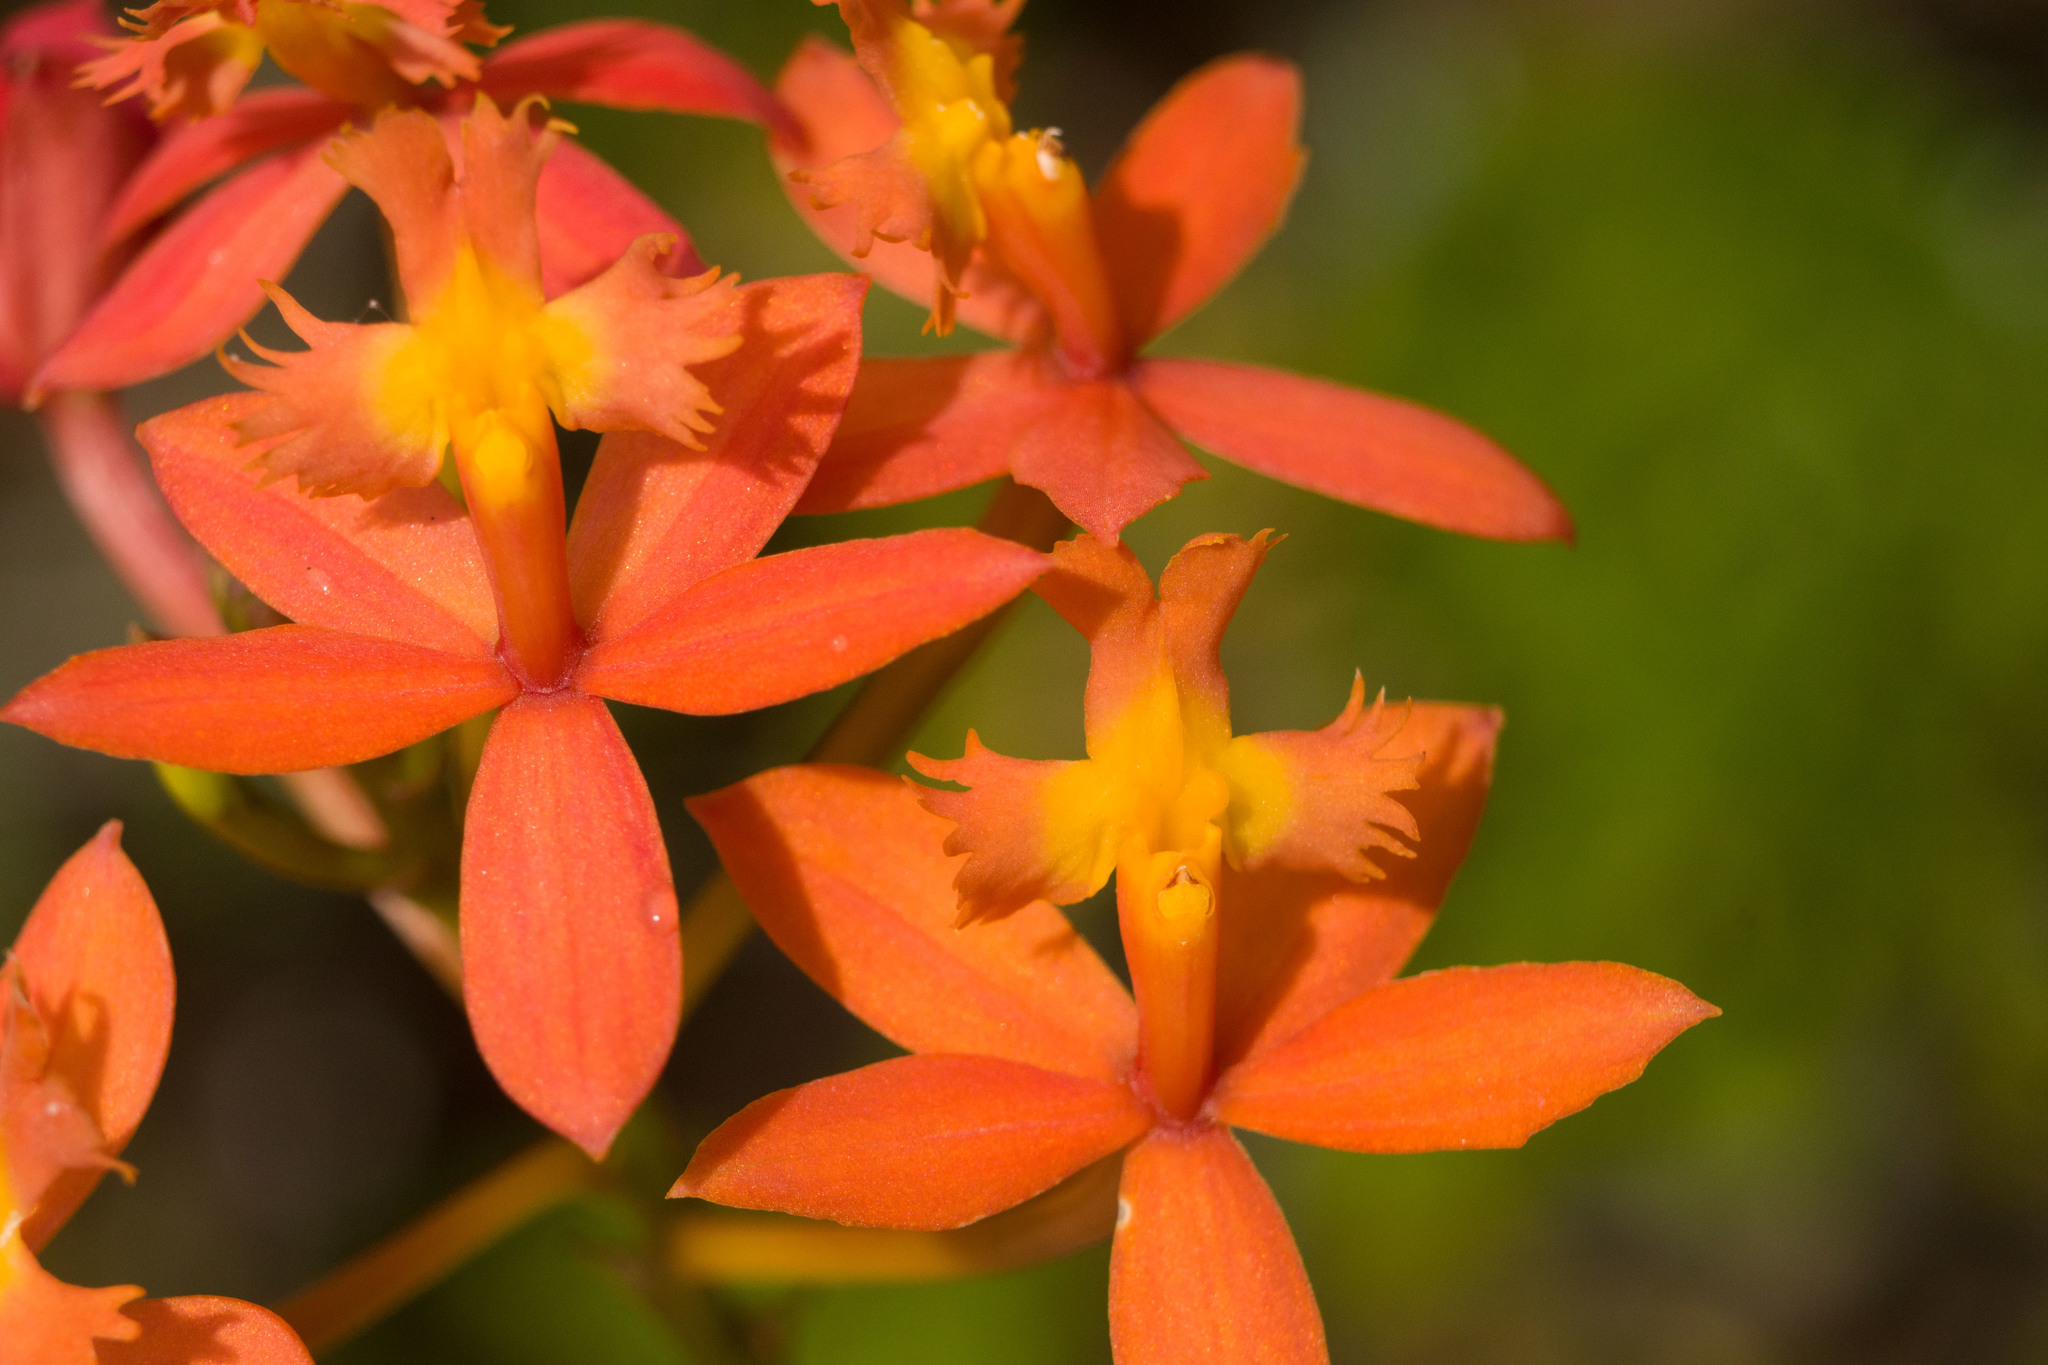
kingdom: Plantae
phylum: Tracheophyta
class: Liliopsida
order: Asparagales
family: Orchidaceae
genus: Epidendrum
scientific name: Epidendrum obrienianum
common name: O'brien's star orchid
